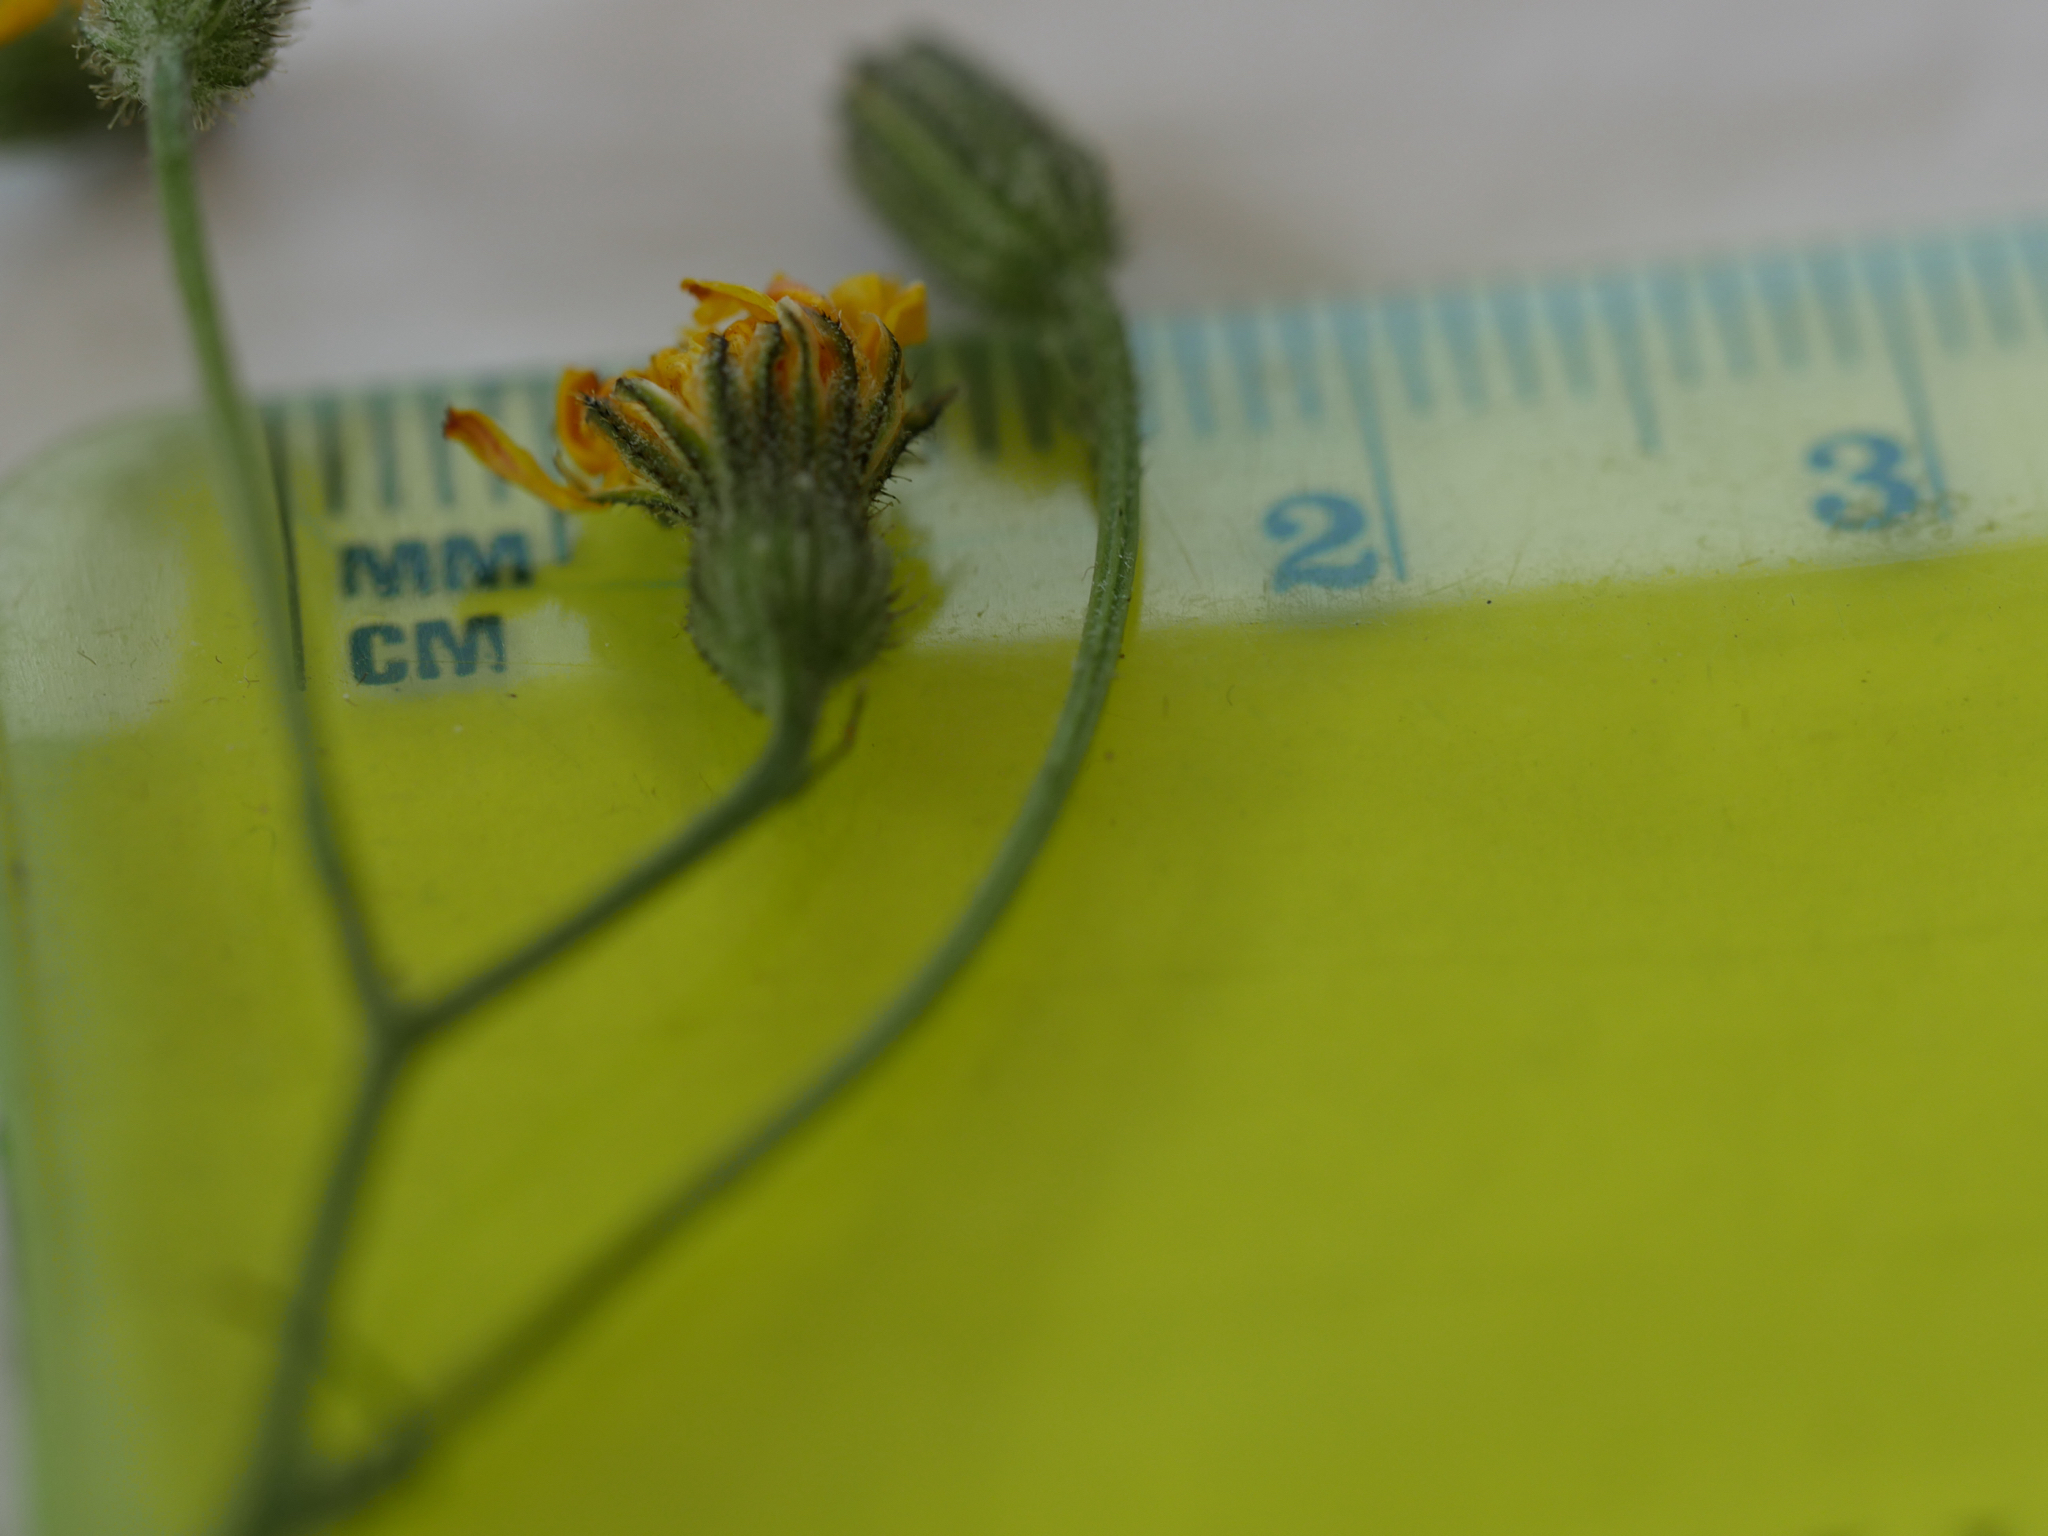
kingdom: Plantae
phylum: Tracheophyta
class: Magnoliopsida
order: Asterales
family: Asteraceae
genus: Crepis
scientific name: Crepis capillaris
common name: Smooth hawksbeard
